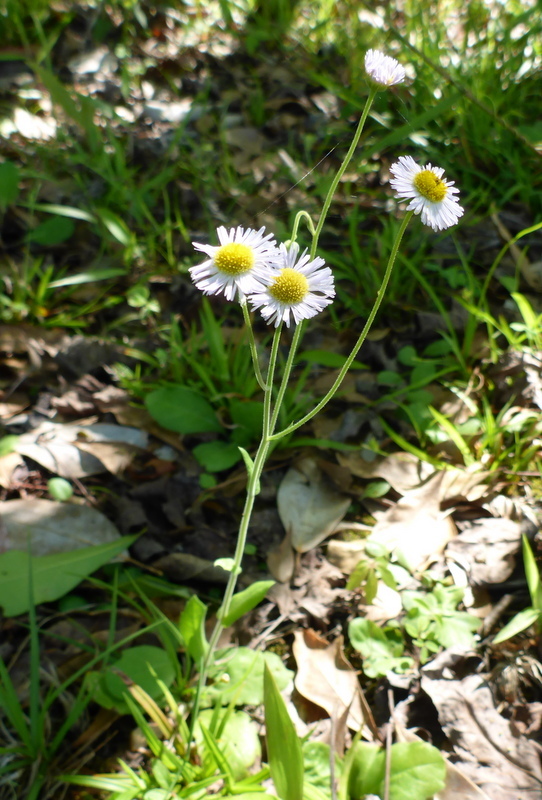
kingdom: Plantae
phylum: Tracheophyta
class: Magnoliopsida
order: Asterales
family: Asteraceae
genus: Erigeron
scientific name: Erigeron quercifolius
